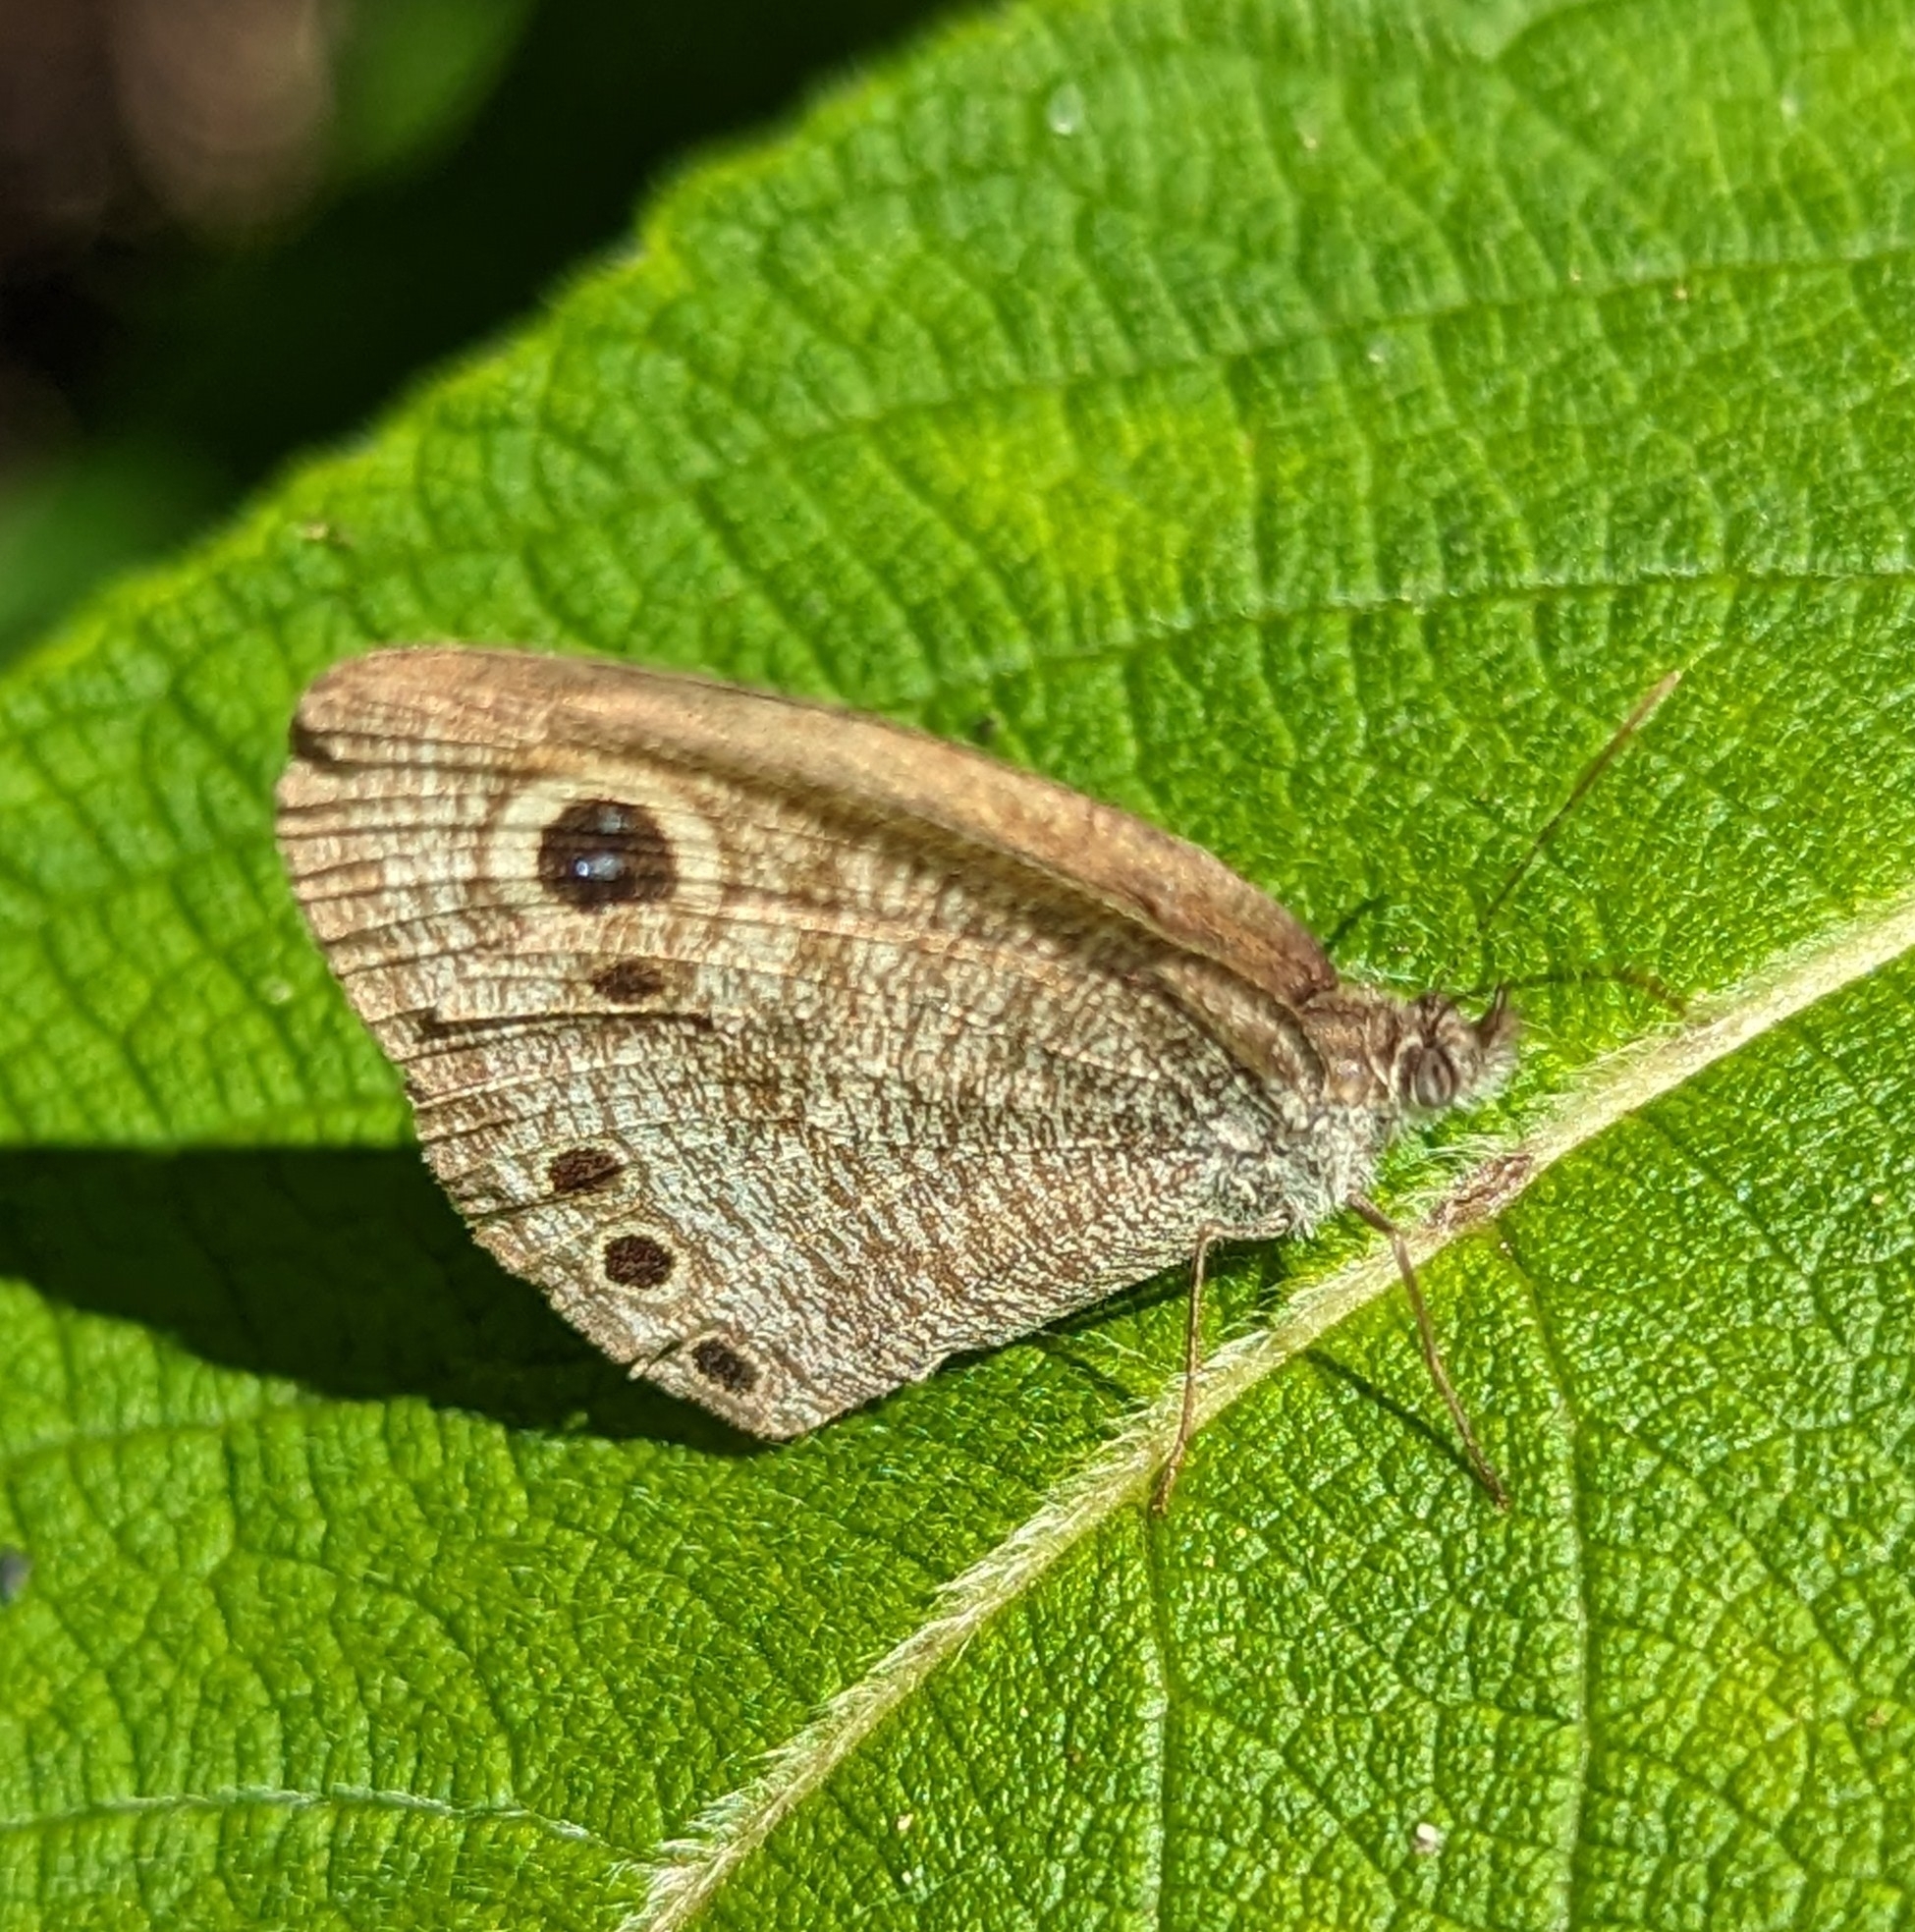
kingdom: Animalia
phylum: Arthropoda
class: Insecta
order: Lepidoptera
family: Nymphalidae
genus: Ypthima
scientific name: Ypthima huebneri
